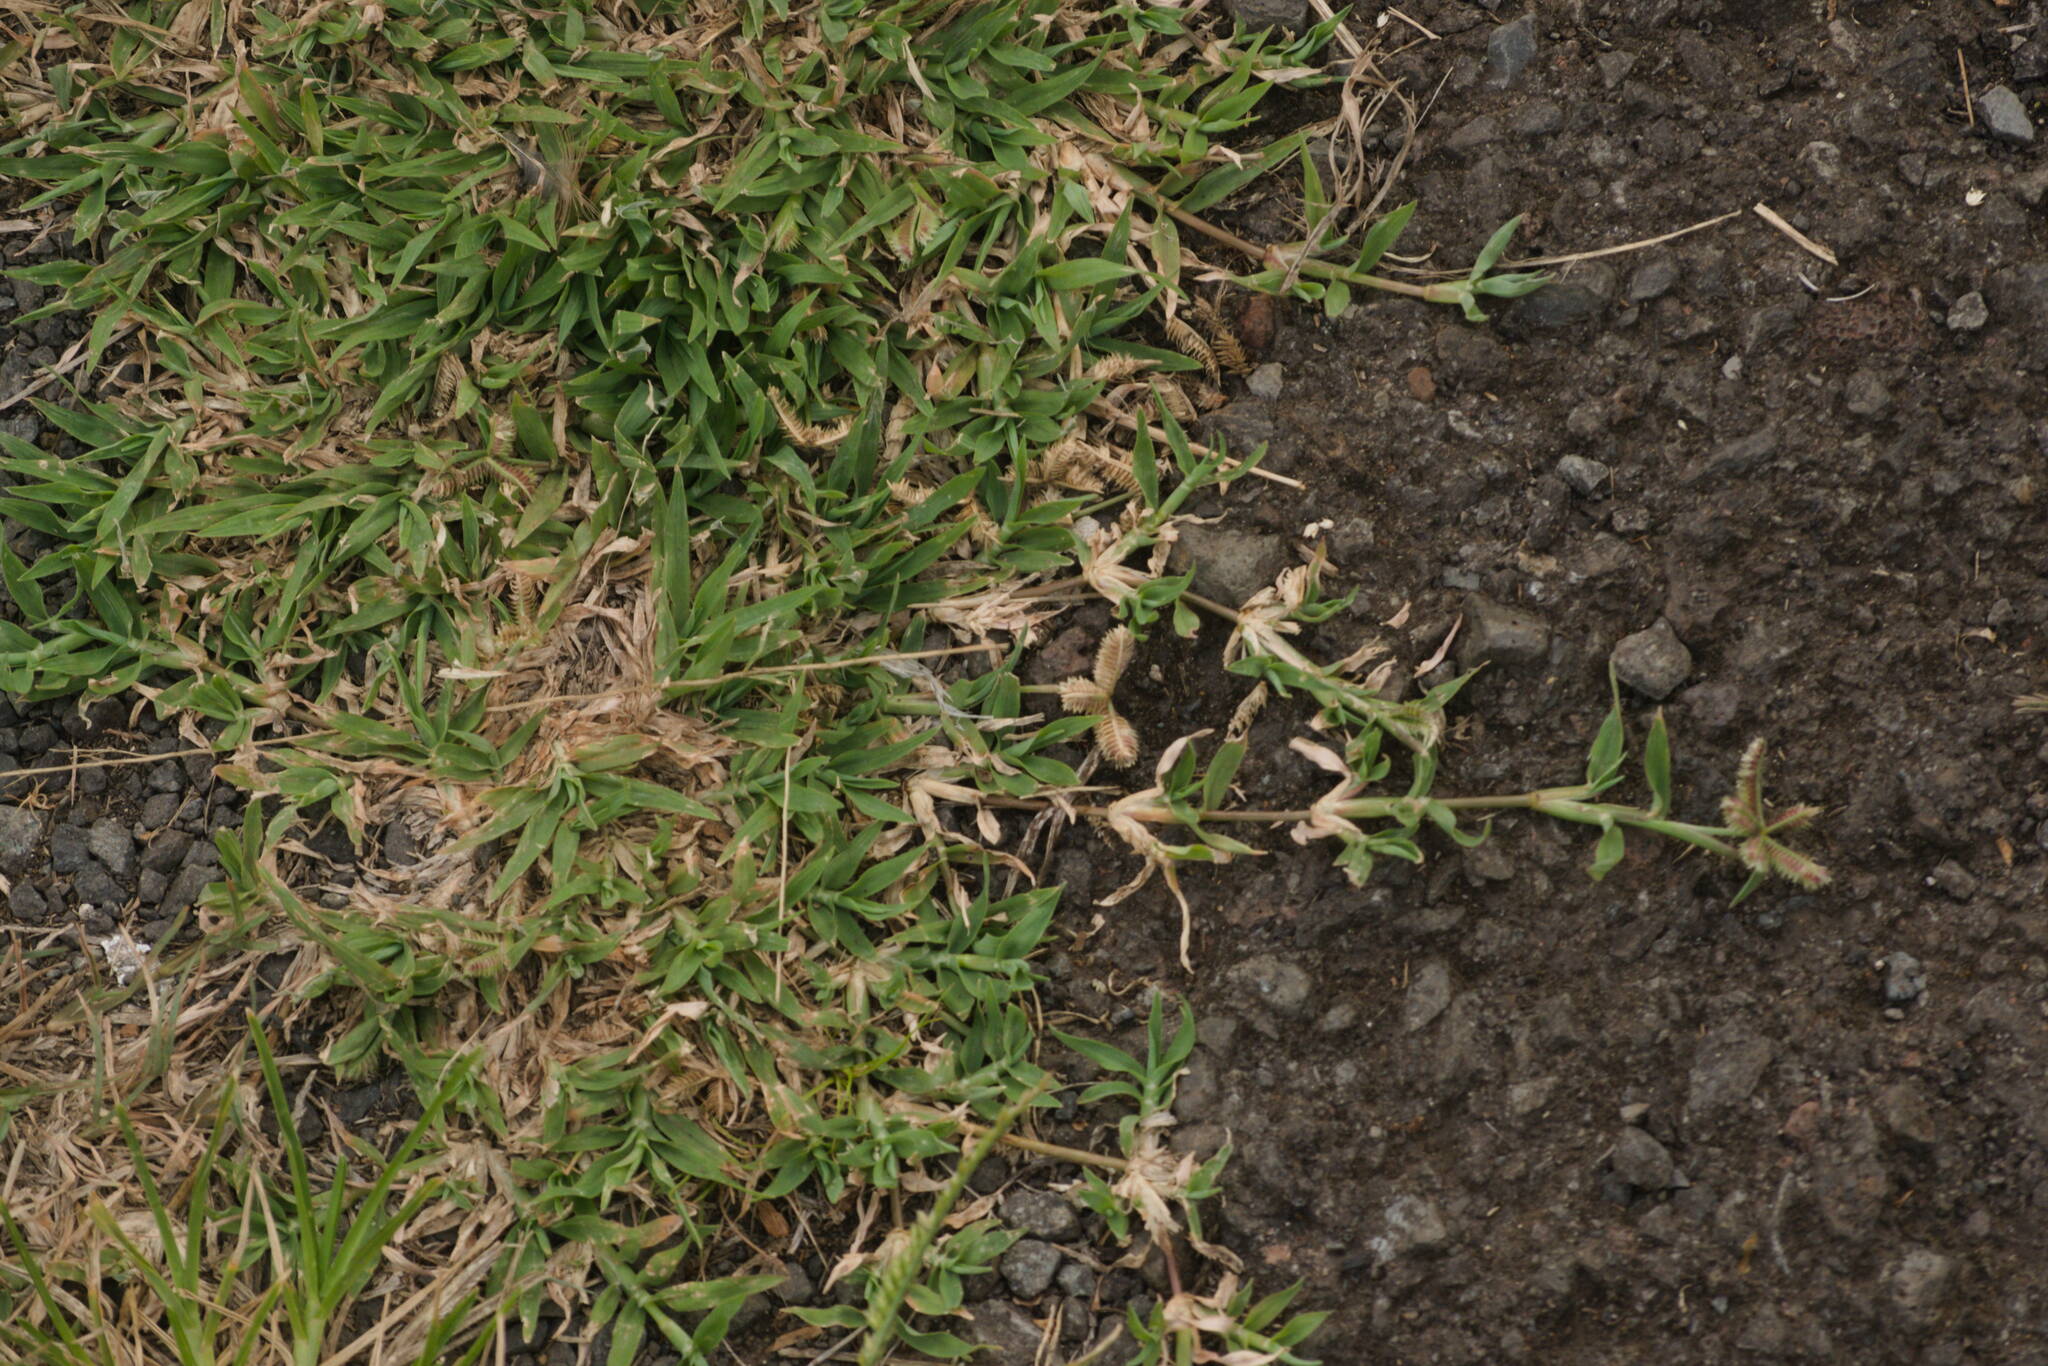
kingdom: Plantae
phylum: Tracheophyta
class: Liliopsida
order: Poales
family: Poaceae
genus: Dactyloctenium
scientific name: Dactyloctenium aegyptium
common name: Egyptian grass
